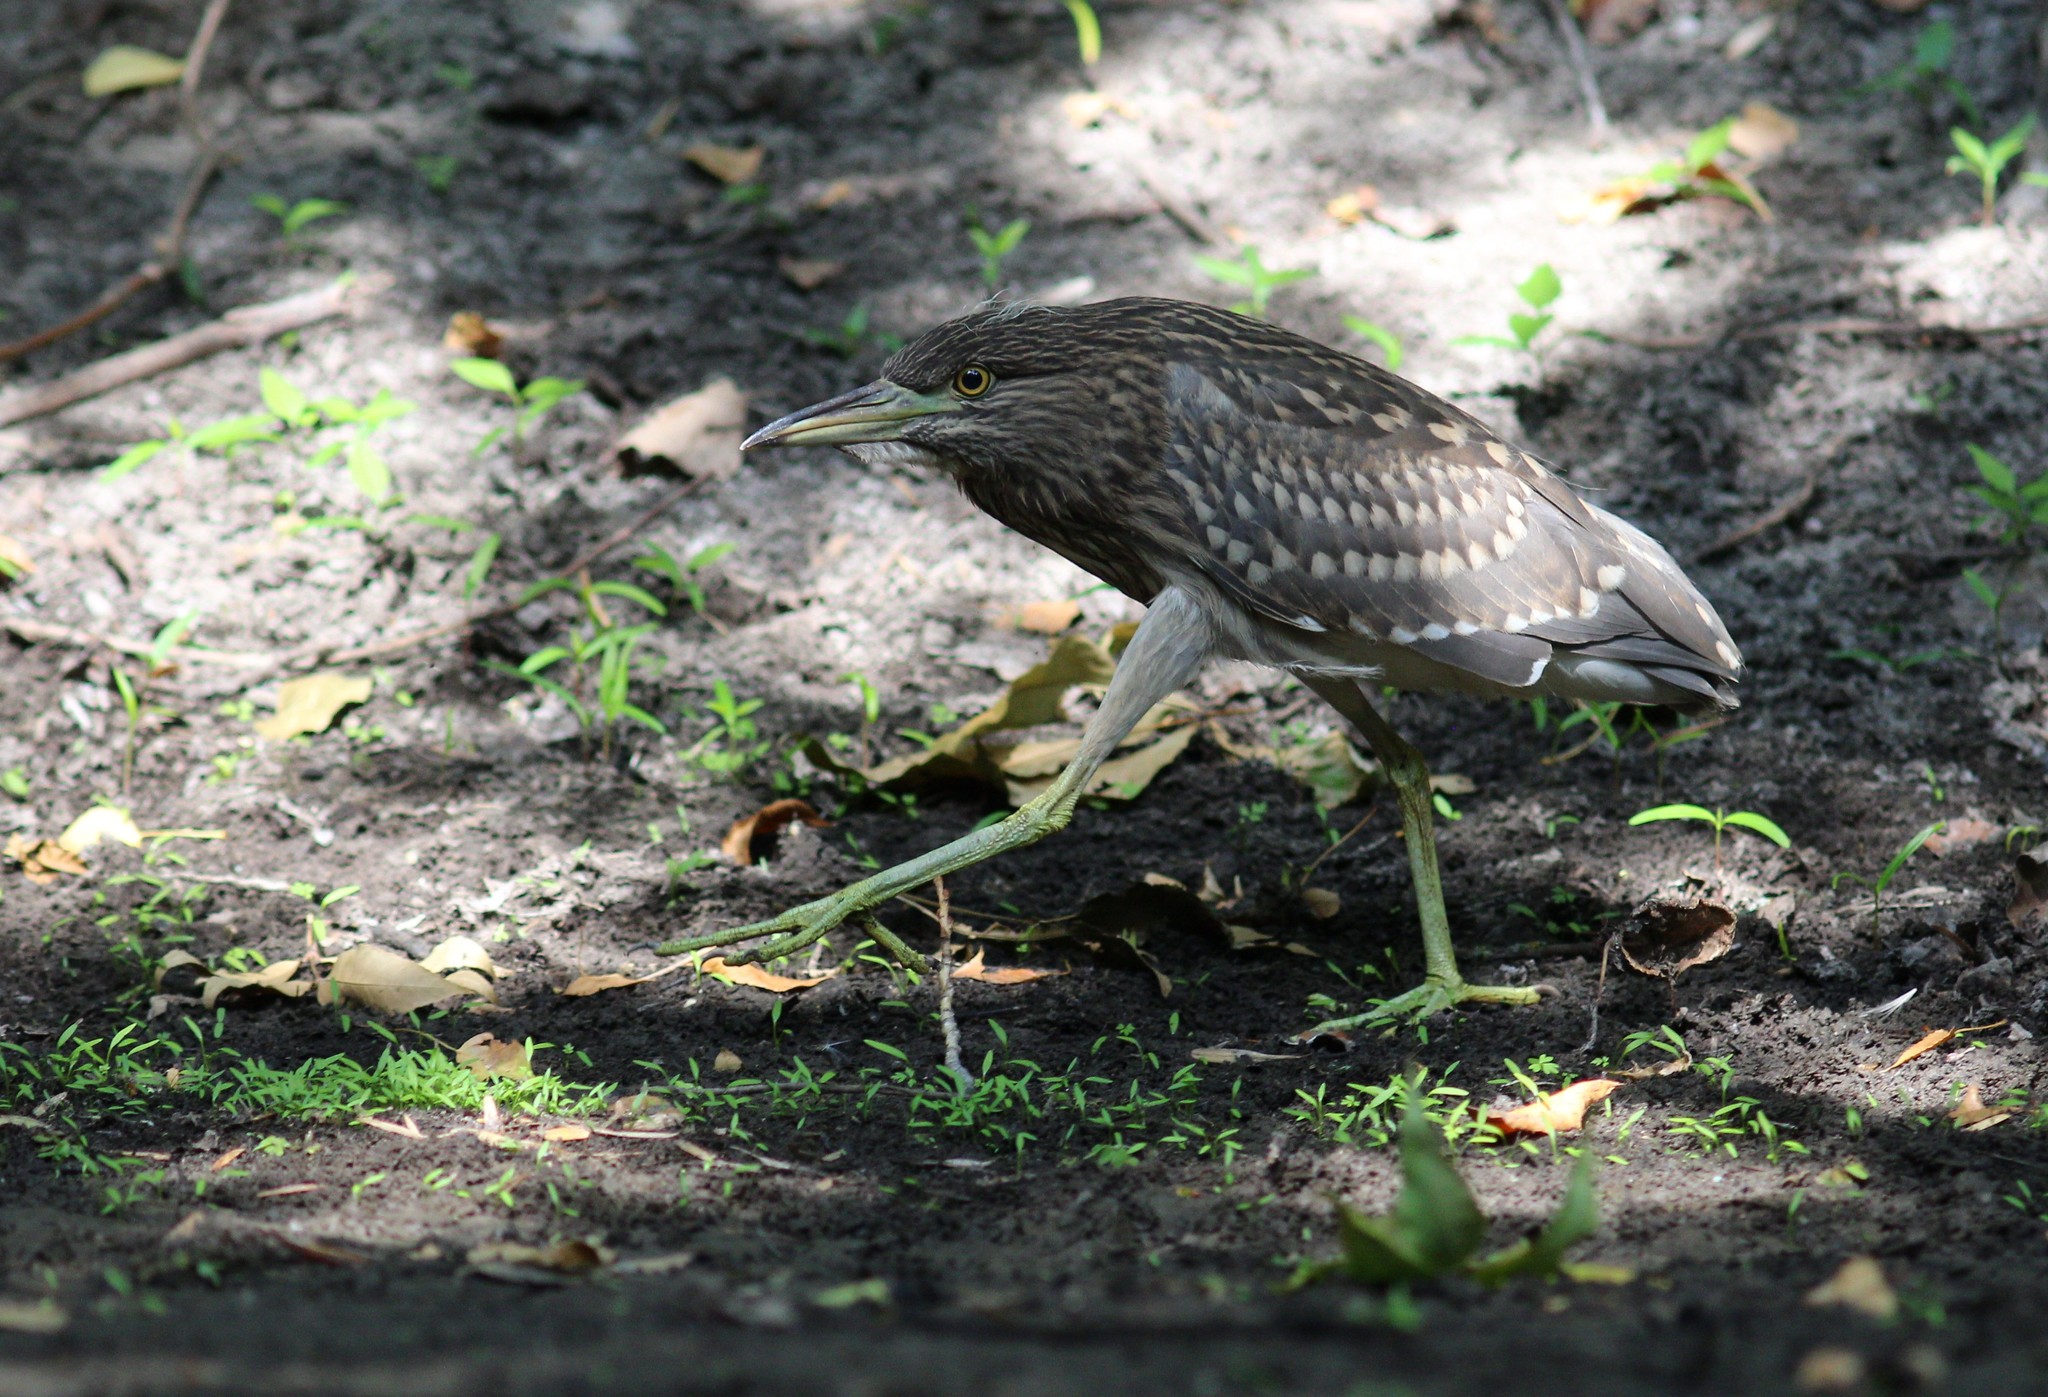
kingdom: Animalia
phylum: Chordata
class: Aves
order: Pelecaniformes
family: Ardeidae
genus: Nycticorax
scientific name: Nycticorax nycticorax
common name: Black-crowned night heron
